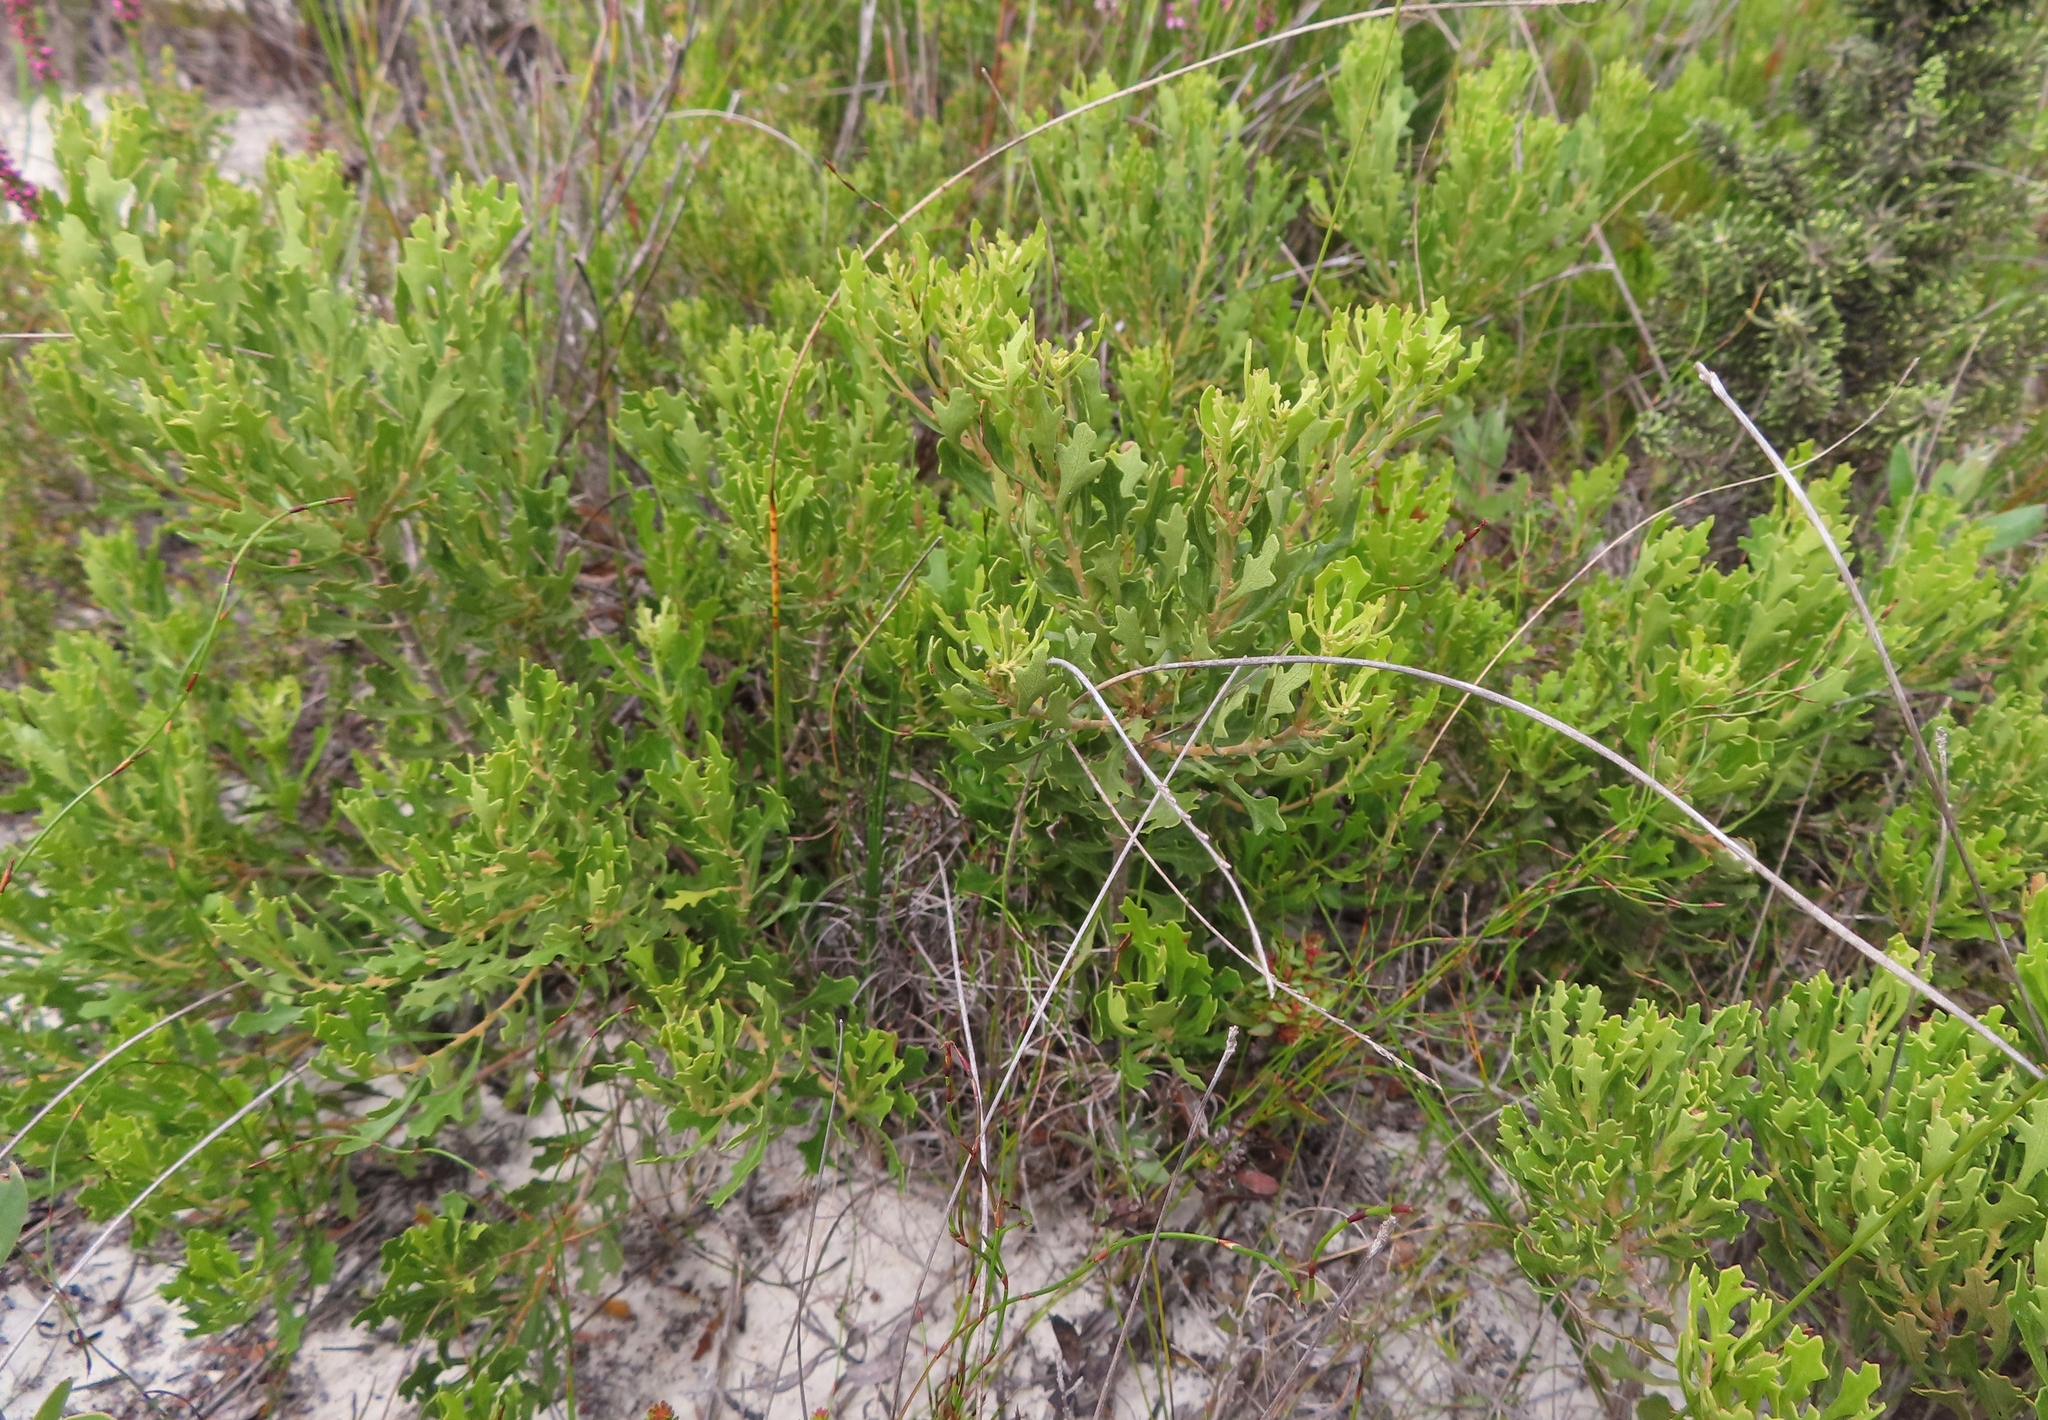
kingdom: Plantae
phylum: Tracheophyta
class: Magnoliopsida
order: Fagales
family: Myricaceae
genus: Morella
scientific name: Morella quercifolia
